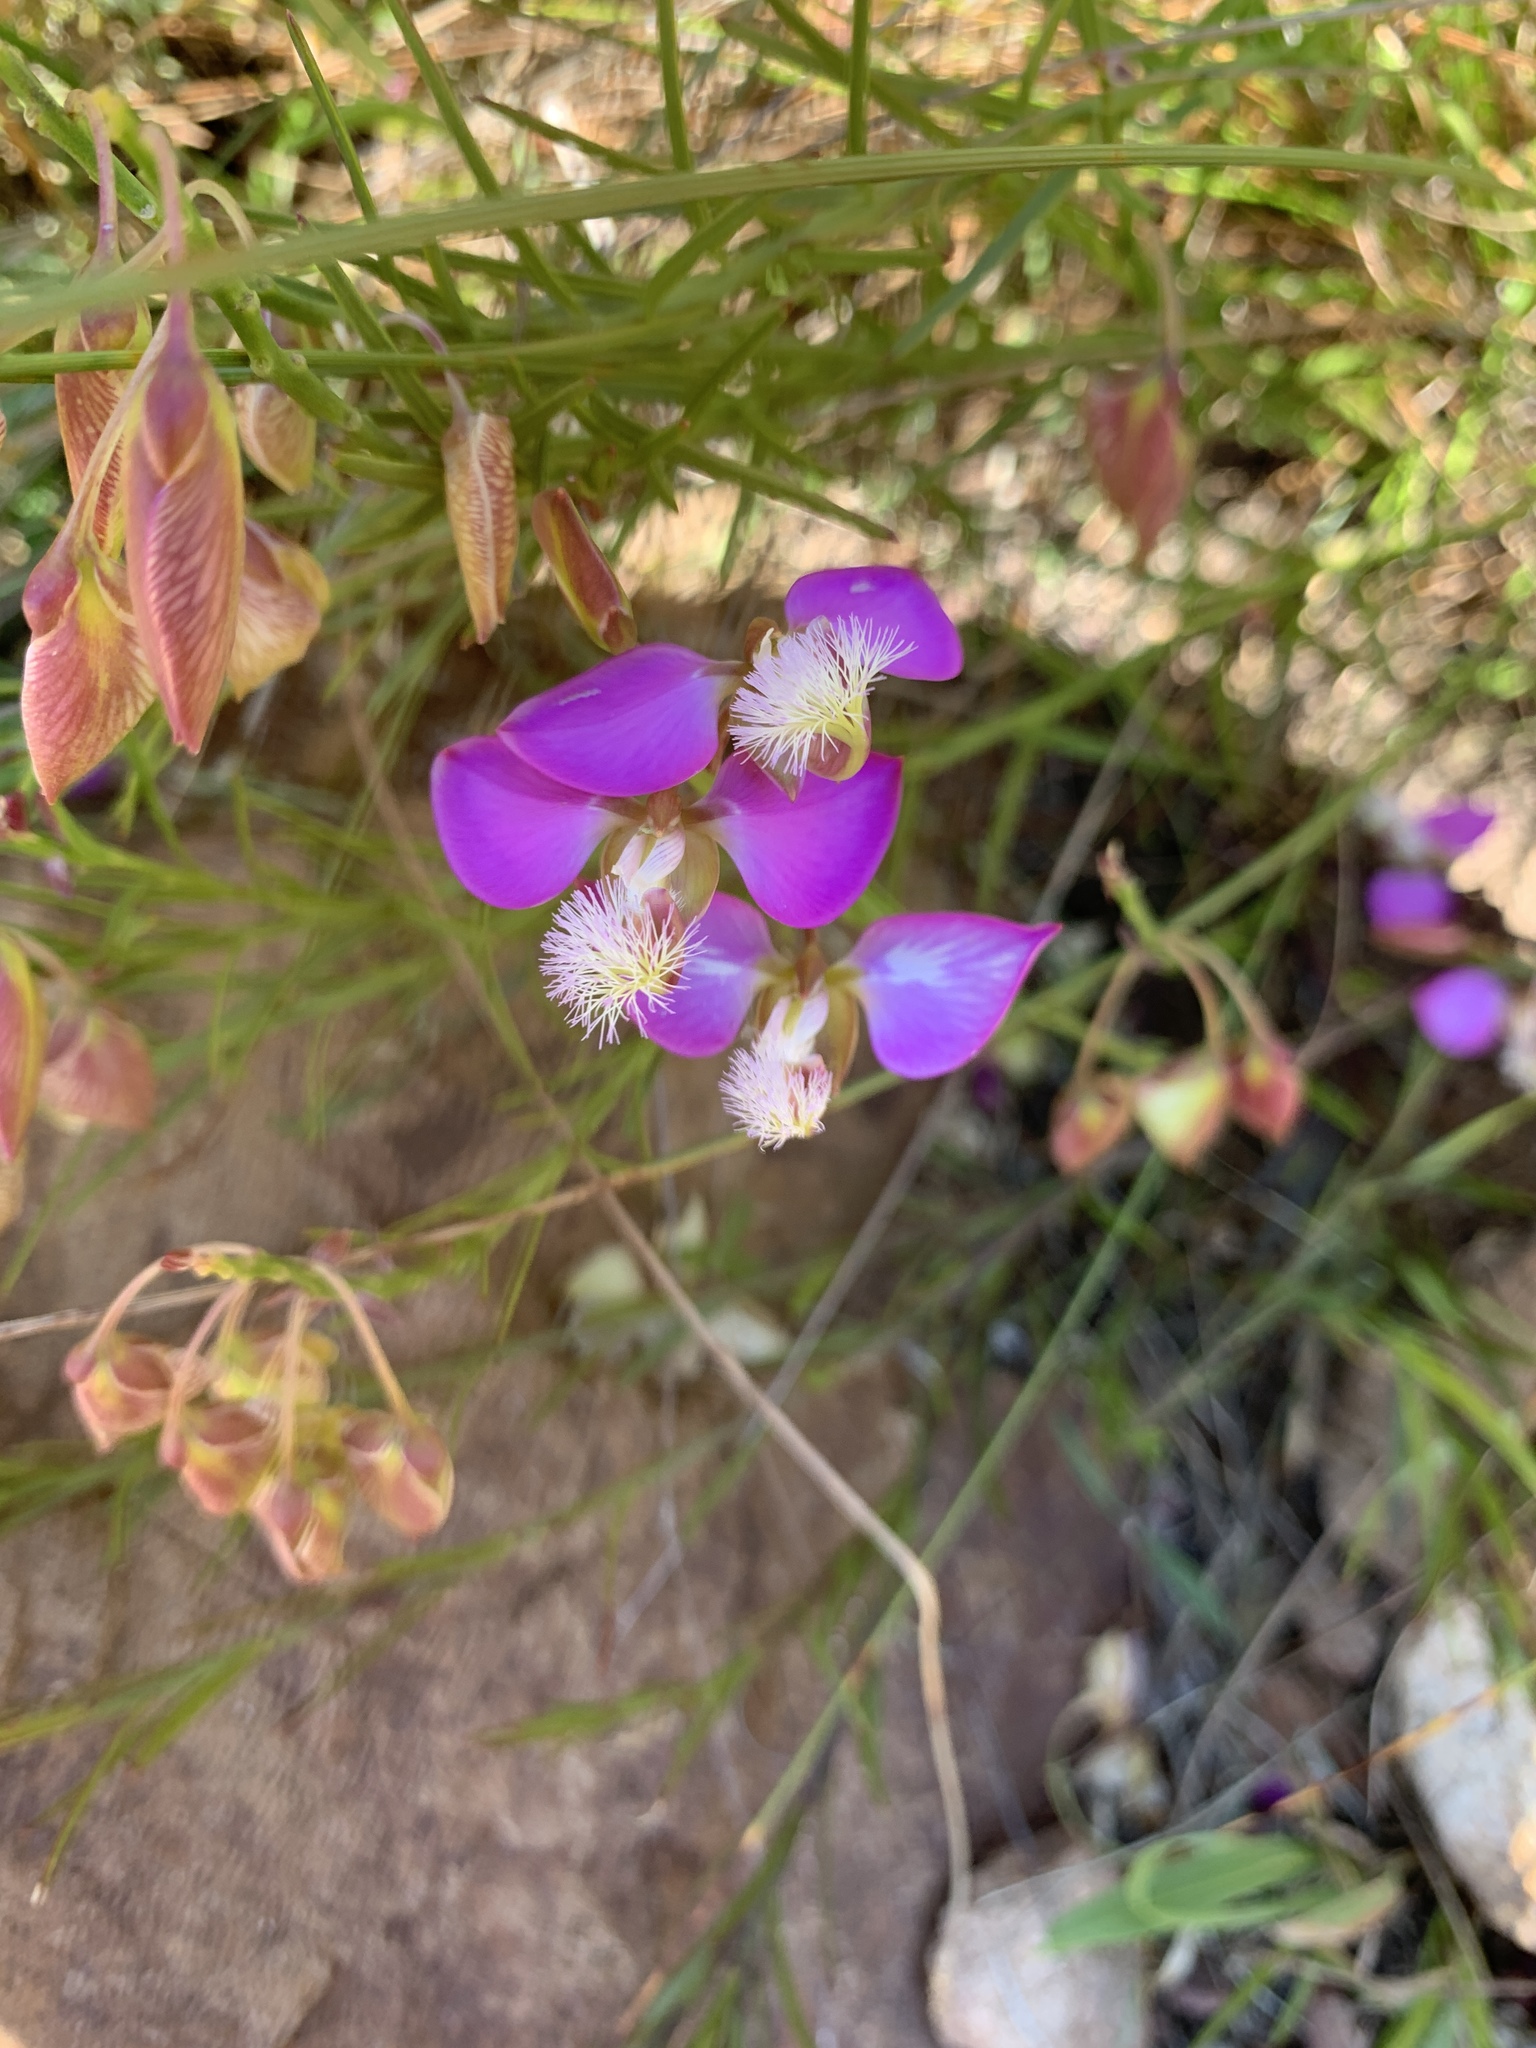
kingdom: Plantae
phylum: Tracheophyta
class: Magnoliopsida
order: Fabales
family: Polygalaceae
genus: Polygala
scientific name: Polygala bracteolata
